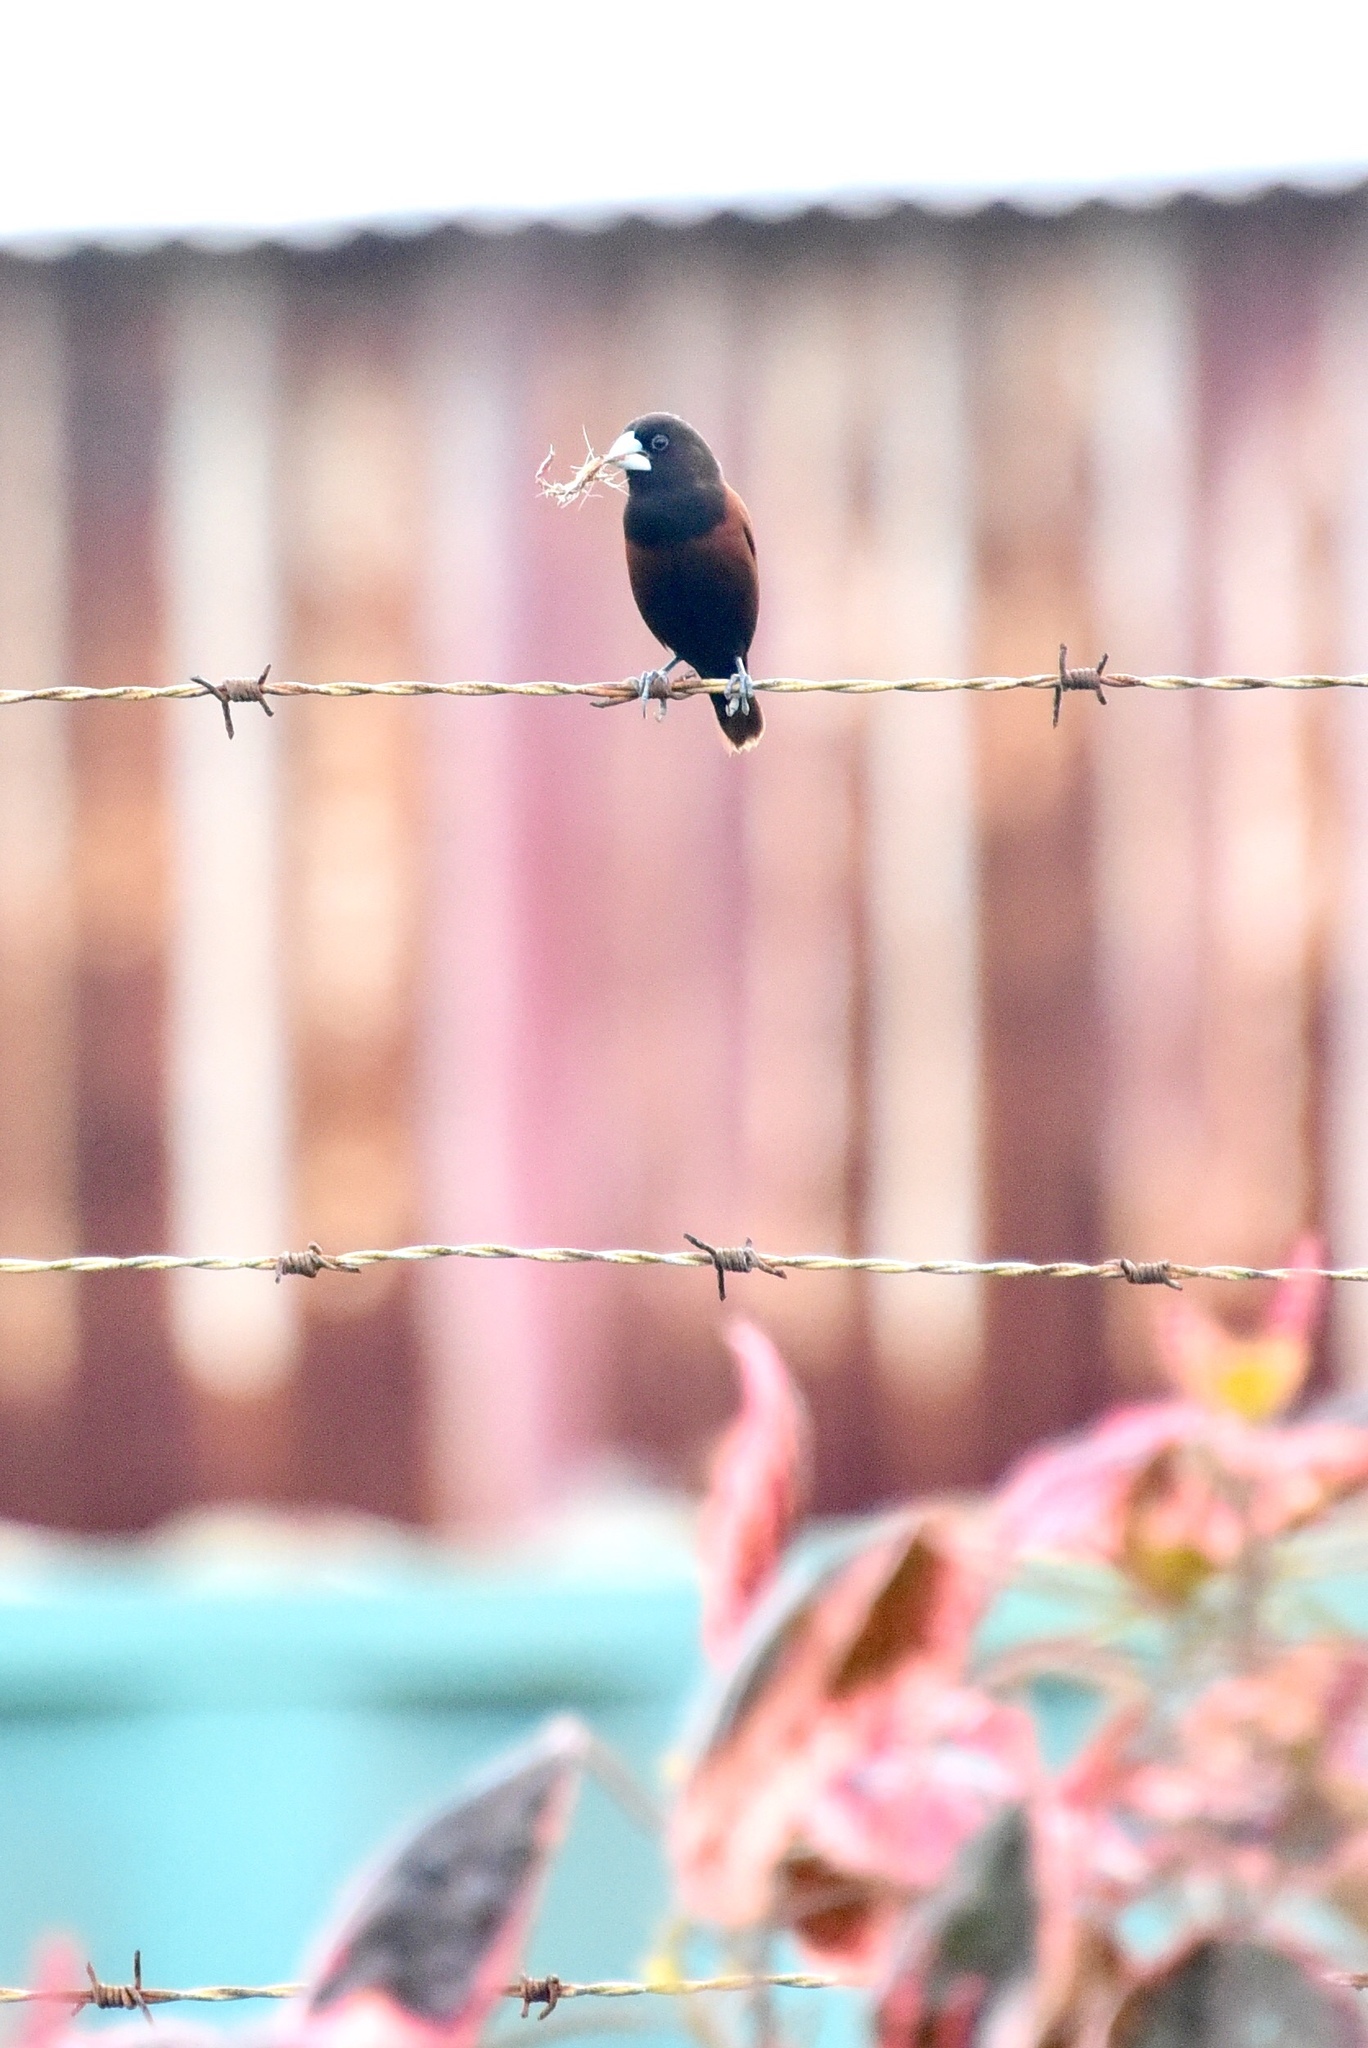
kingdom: Animalia
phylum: Chordata
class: Aves
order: Passeriformes
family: Estrildidae
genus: Lonchura
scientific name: Lonchura atricapilla
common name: Chestnut munia
